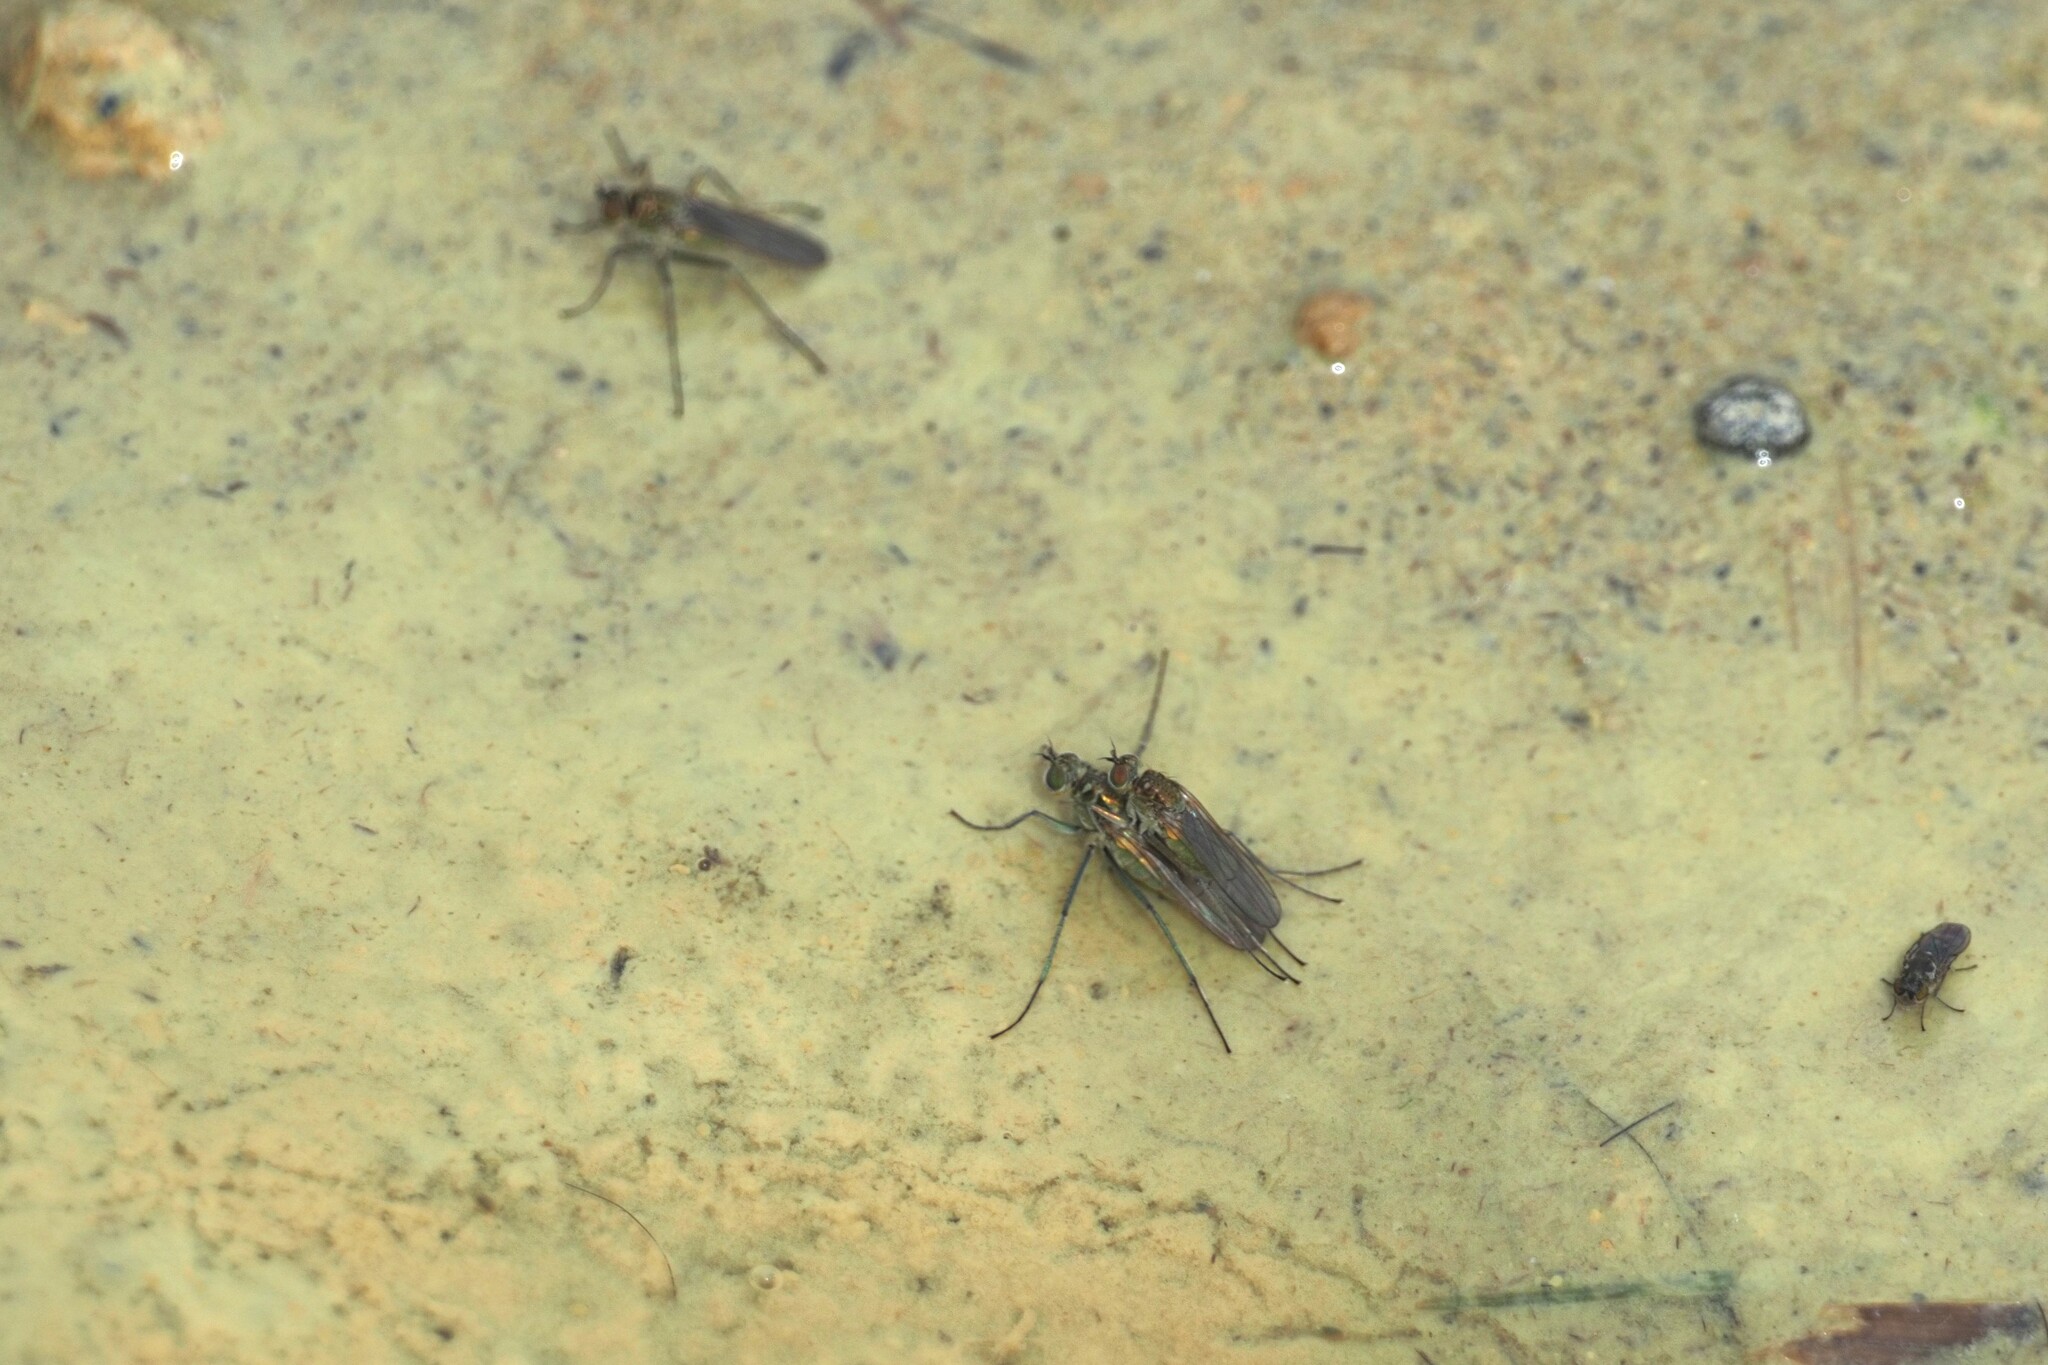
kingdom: Animalia
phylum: Arthropoda
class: Insecta
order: Diptera
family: Dolichopodidae
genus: Hydrophorus
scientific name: Hydrophorus praecox
